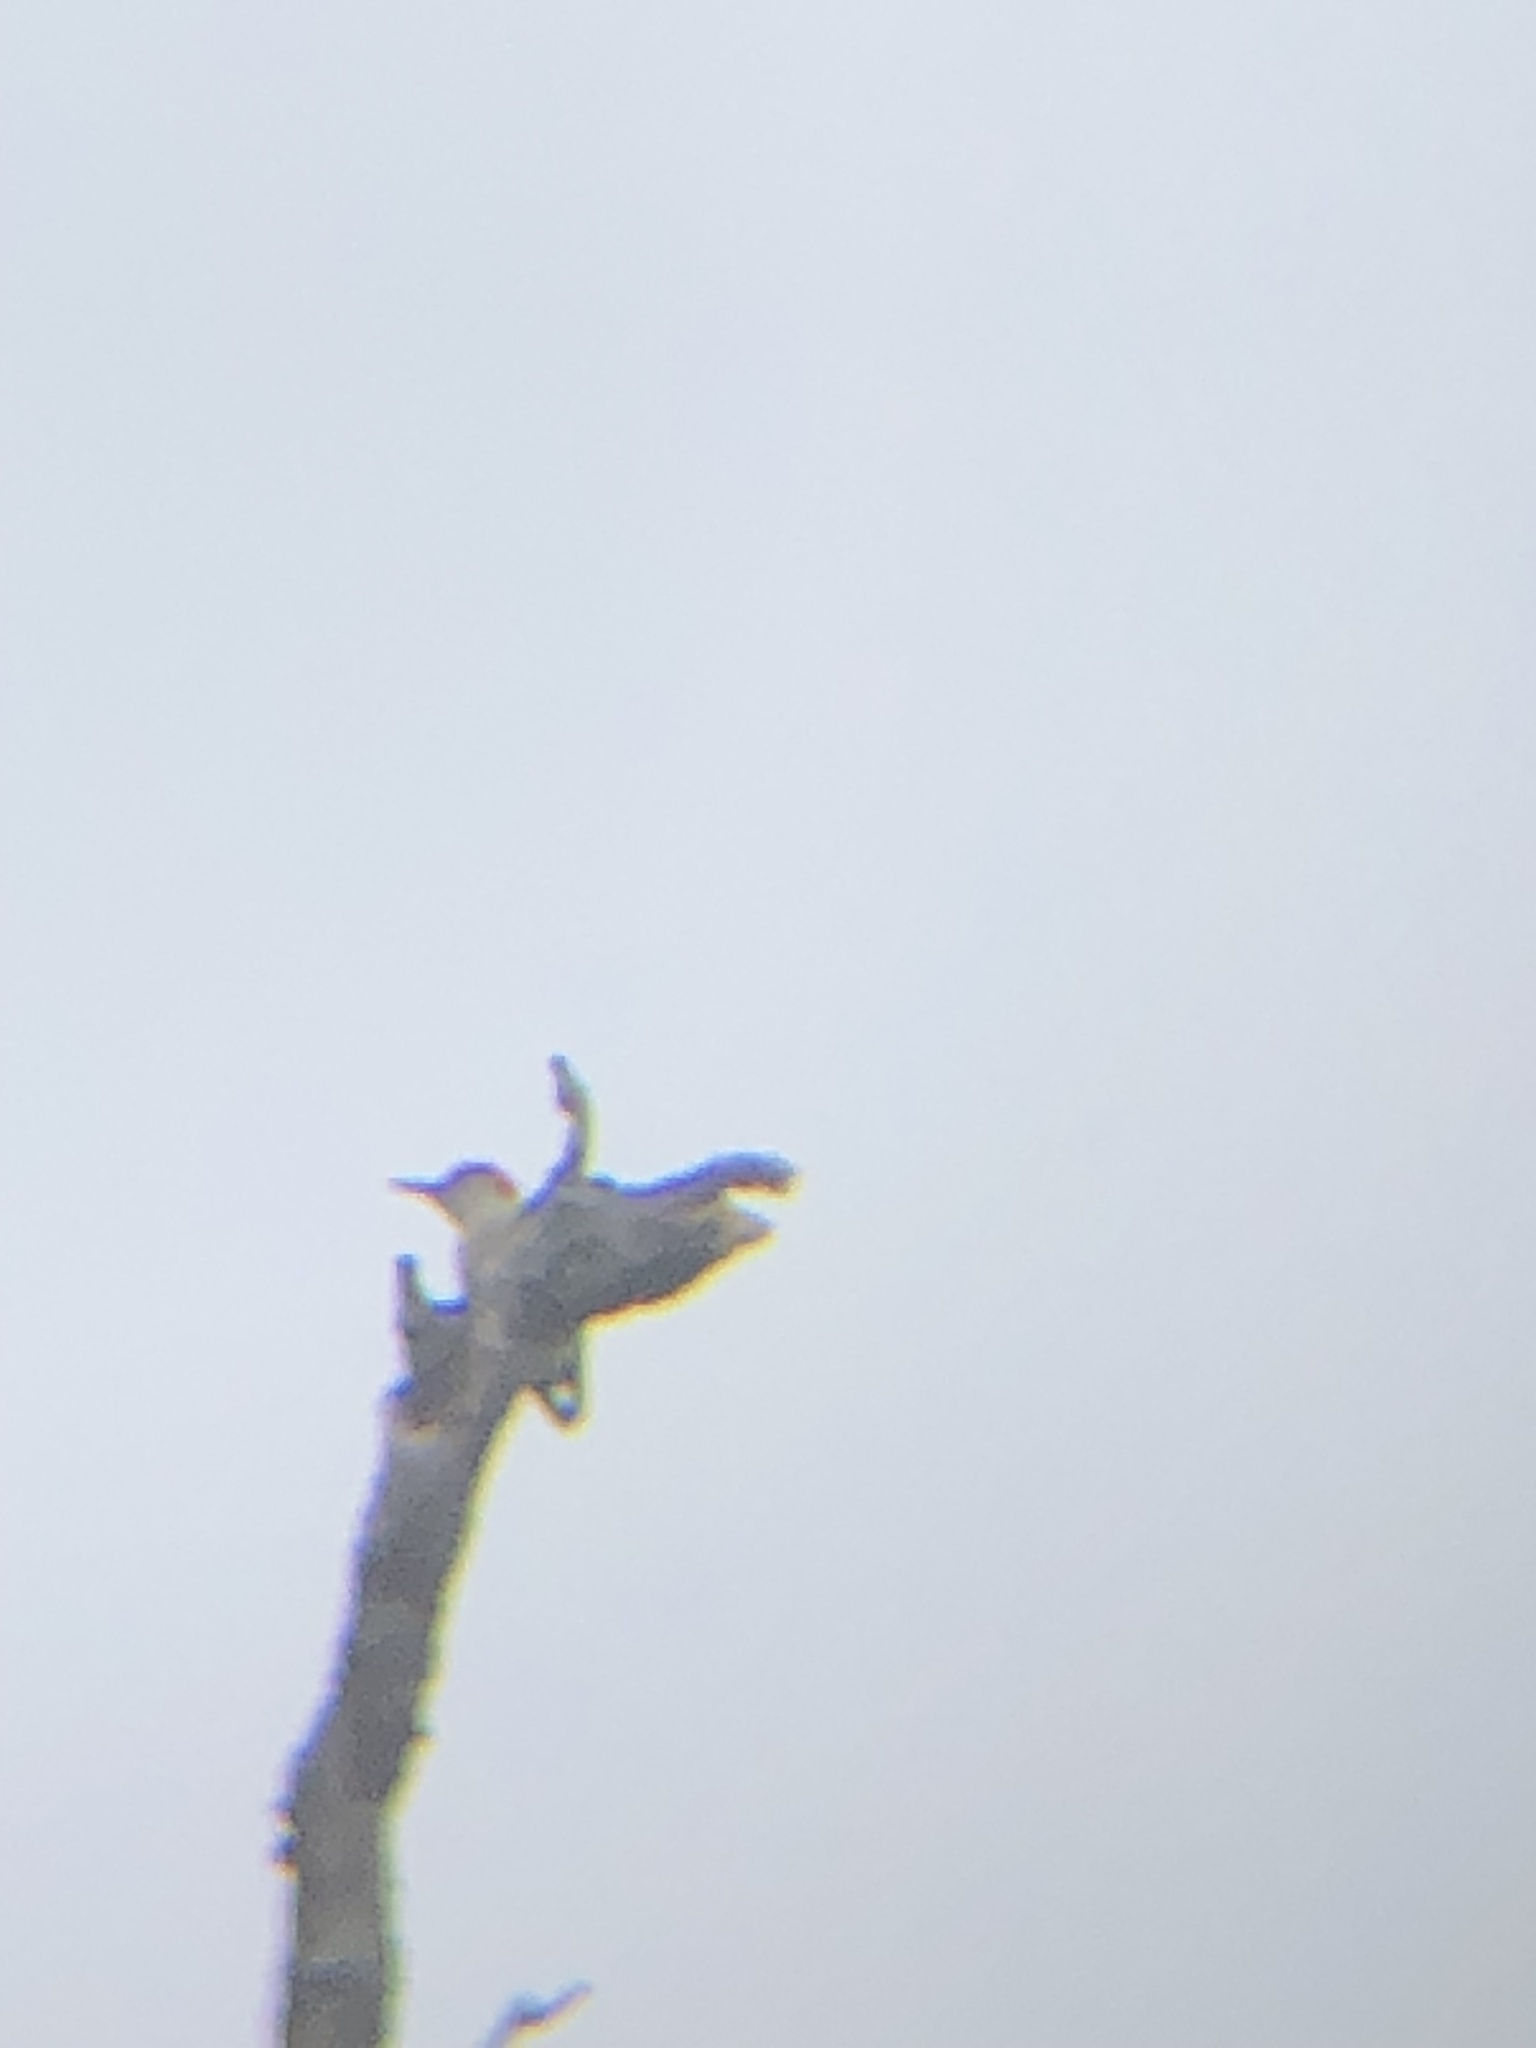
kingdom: Animalia
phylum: Chordata
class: Aves
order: Piciformes
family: Picidae
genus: Melanerpes
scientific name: Melanerpes carolinus
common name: Red-bellied woodpecker
